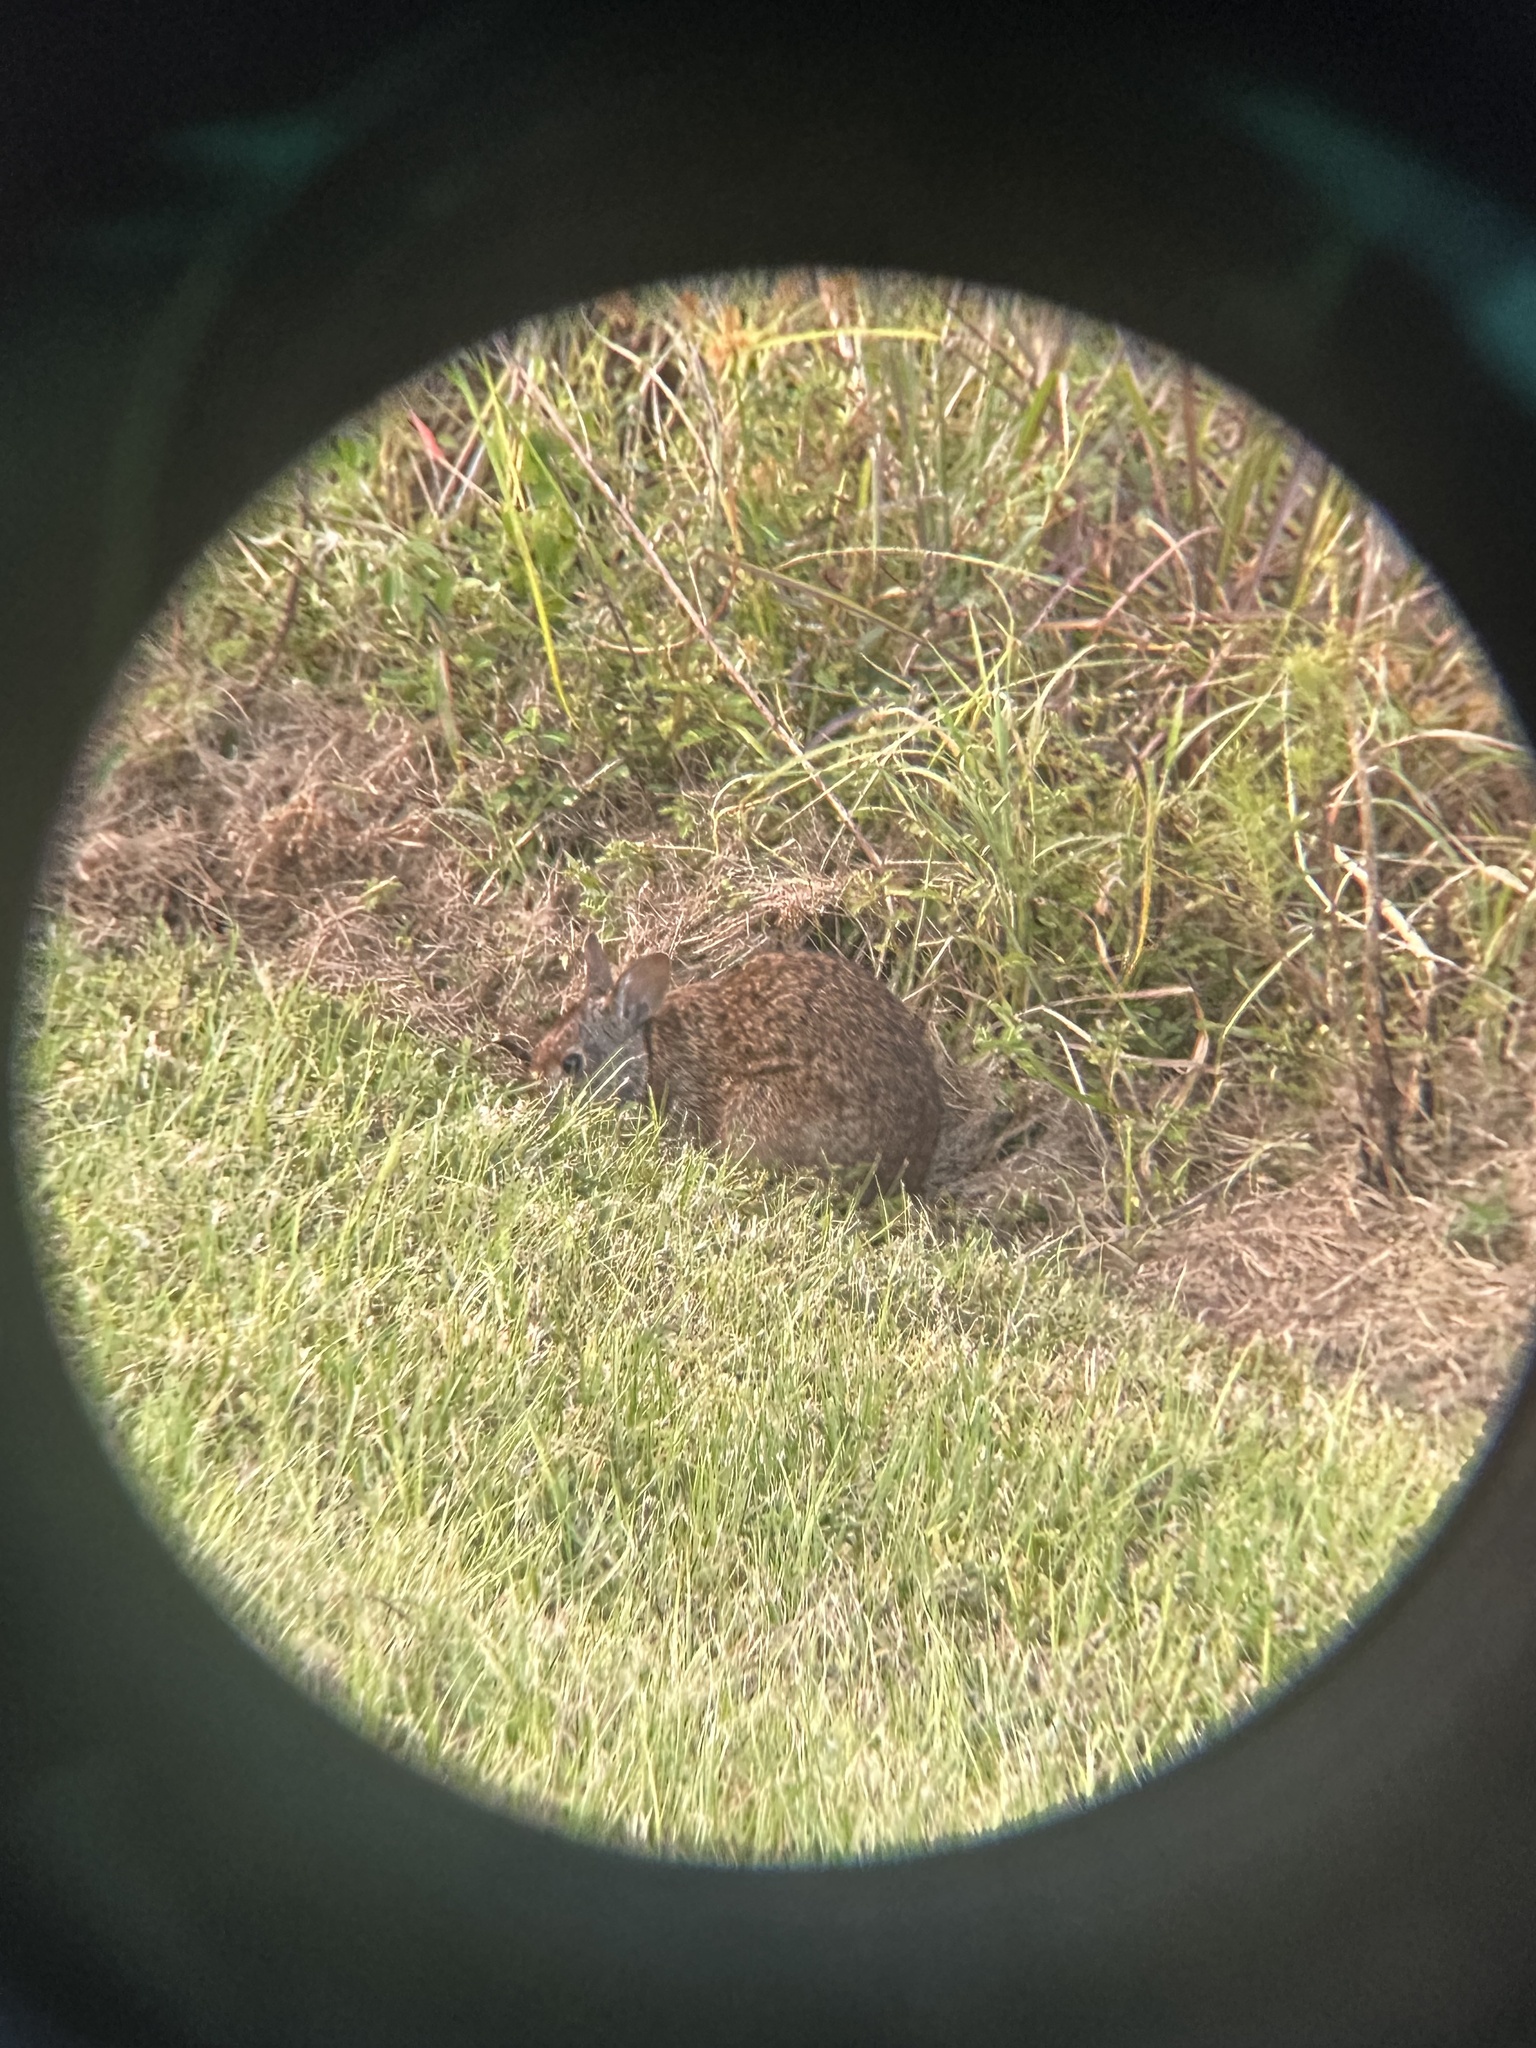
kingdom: Animalia
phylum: Chordata
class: Mammalia
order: Lagomorpha
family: Leporidae
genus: Sylvilagus
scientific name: Sylvilagus palustris
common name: Marsh rabbit
